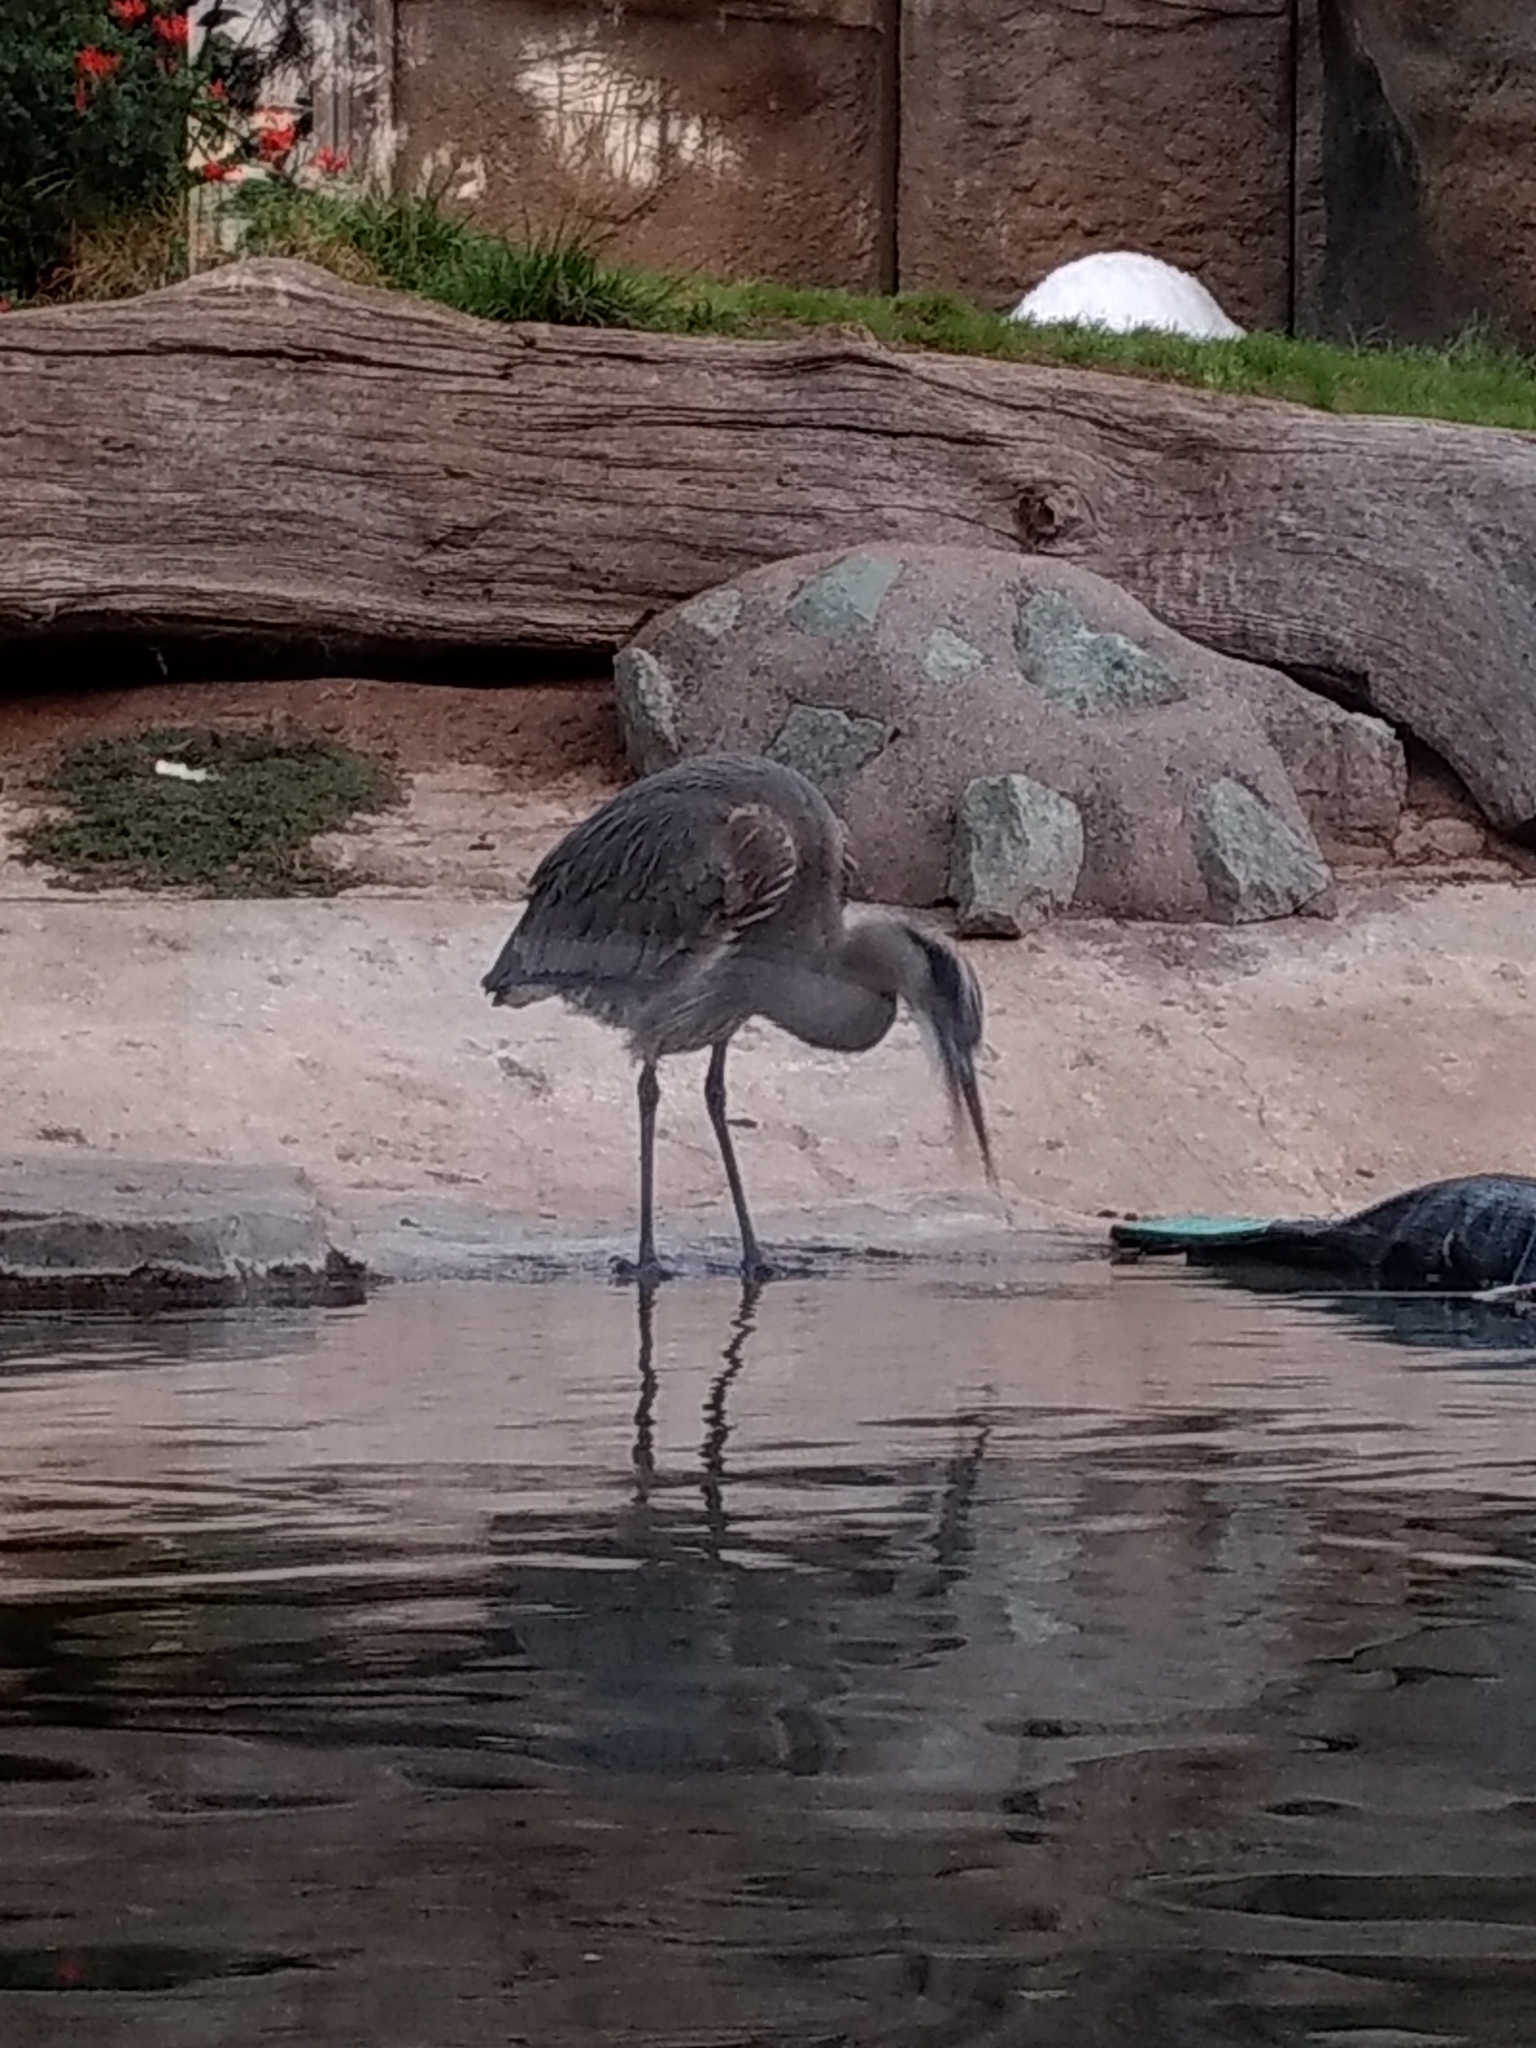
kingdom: Animalia
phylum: Chordata
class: Aves
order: Pelecaniformes
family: Ardeidae
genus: Ardea
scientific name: Ardea herodias
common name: Great blue heron
